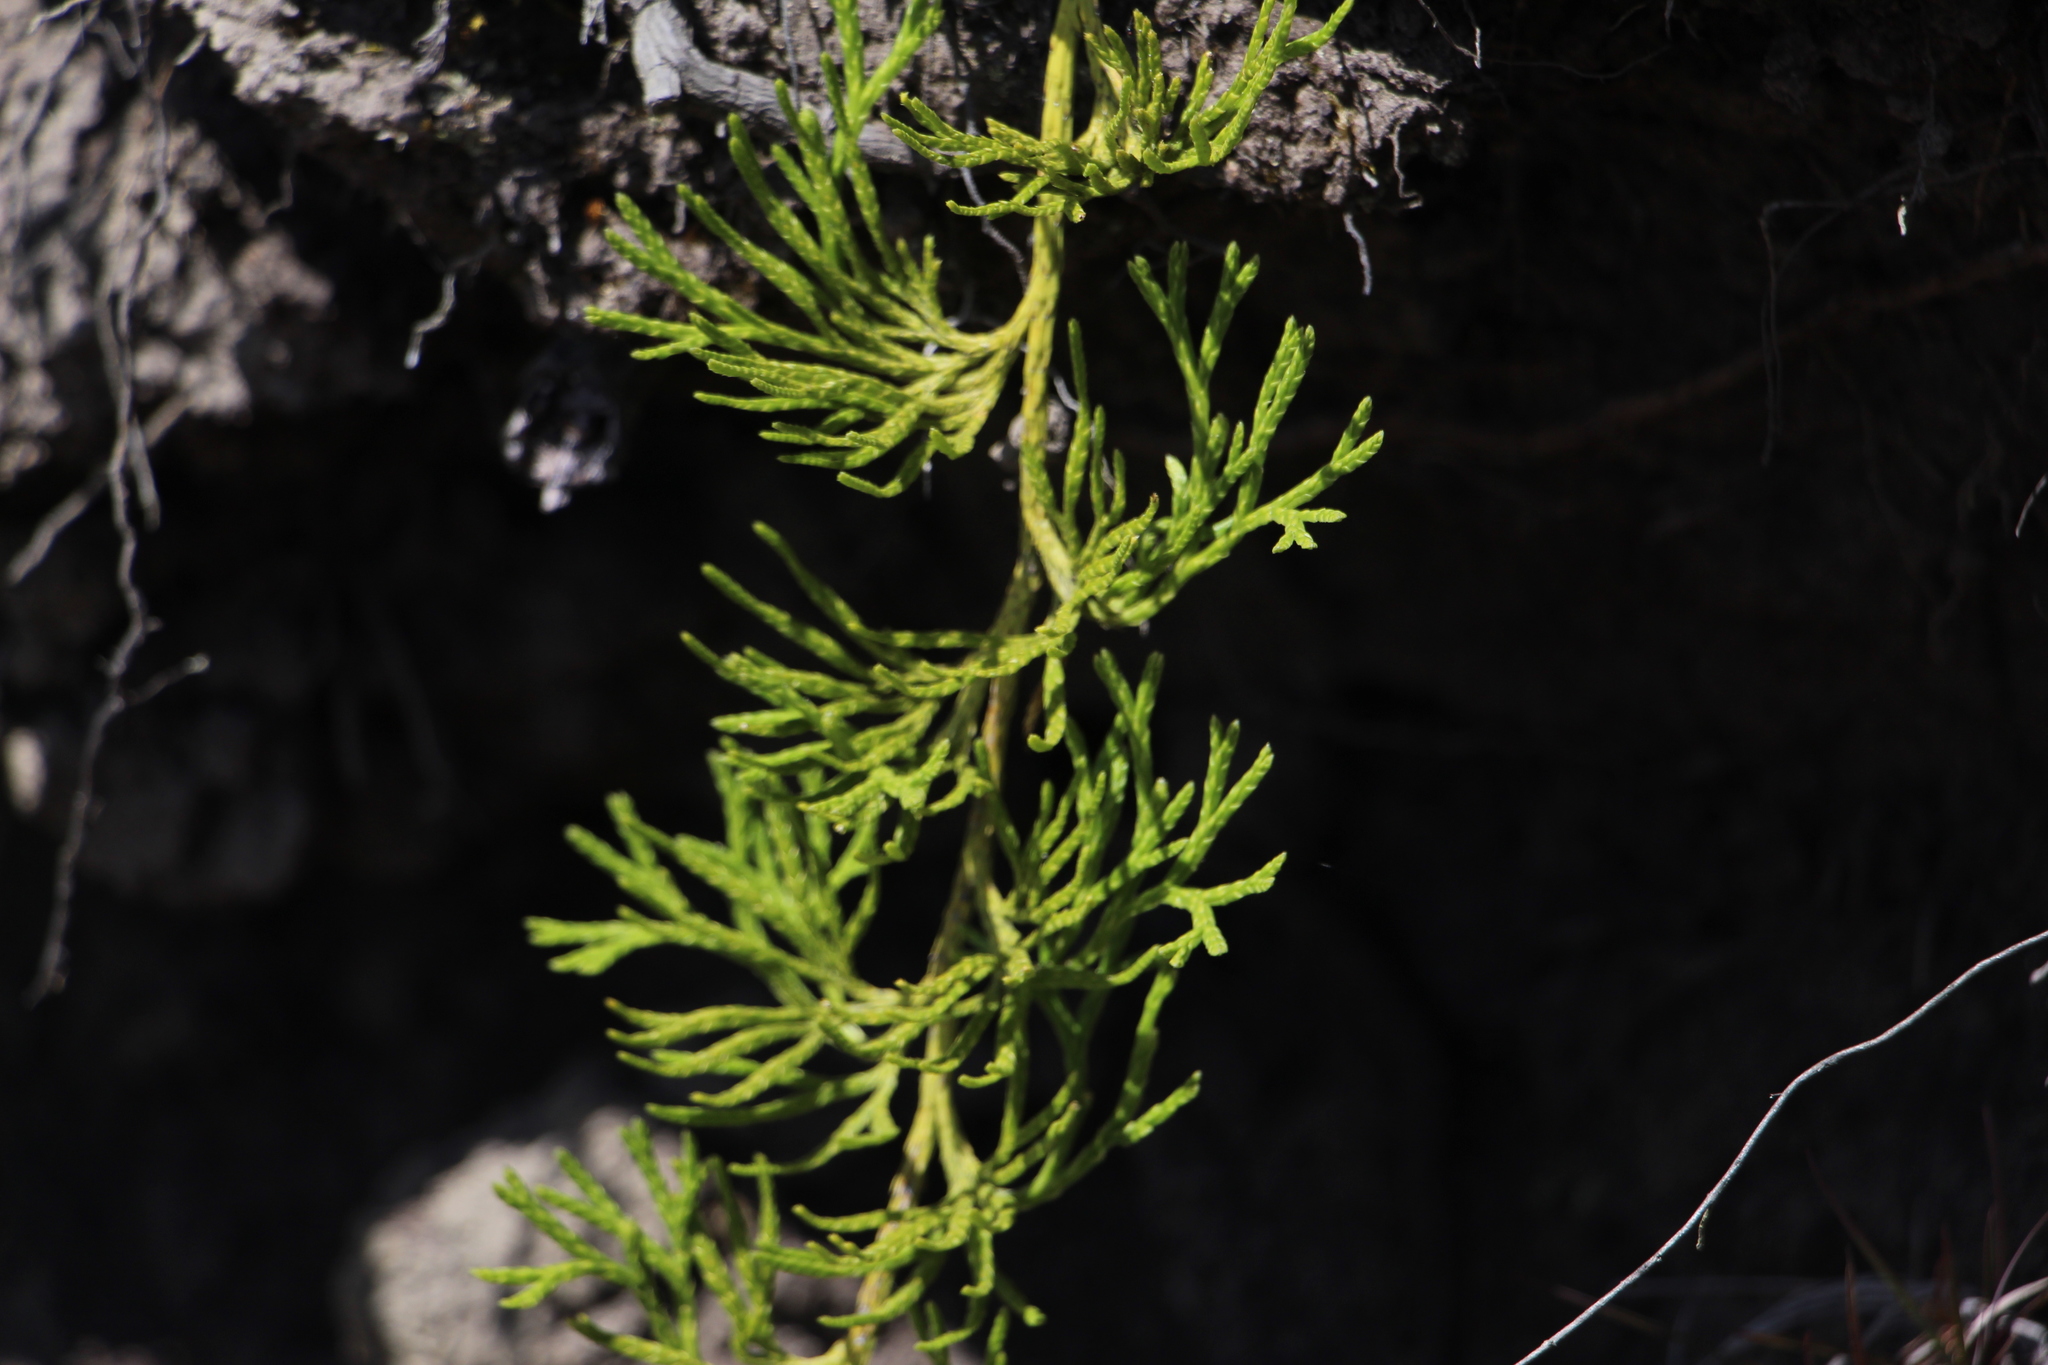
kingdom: Plantae
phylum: Tracheophyta
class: Lycopodiopsida
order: Lycopodiales
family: Lycopodiaceae
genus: Diphasiastrum
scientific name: Diphasiastrum thyoides
